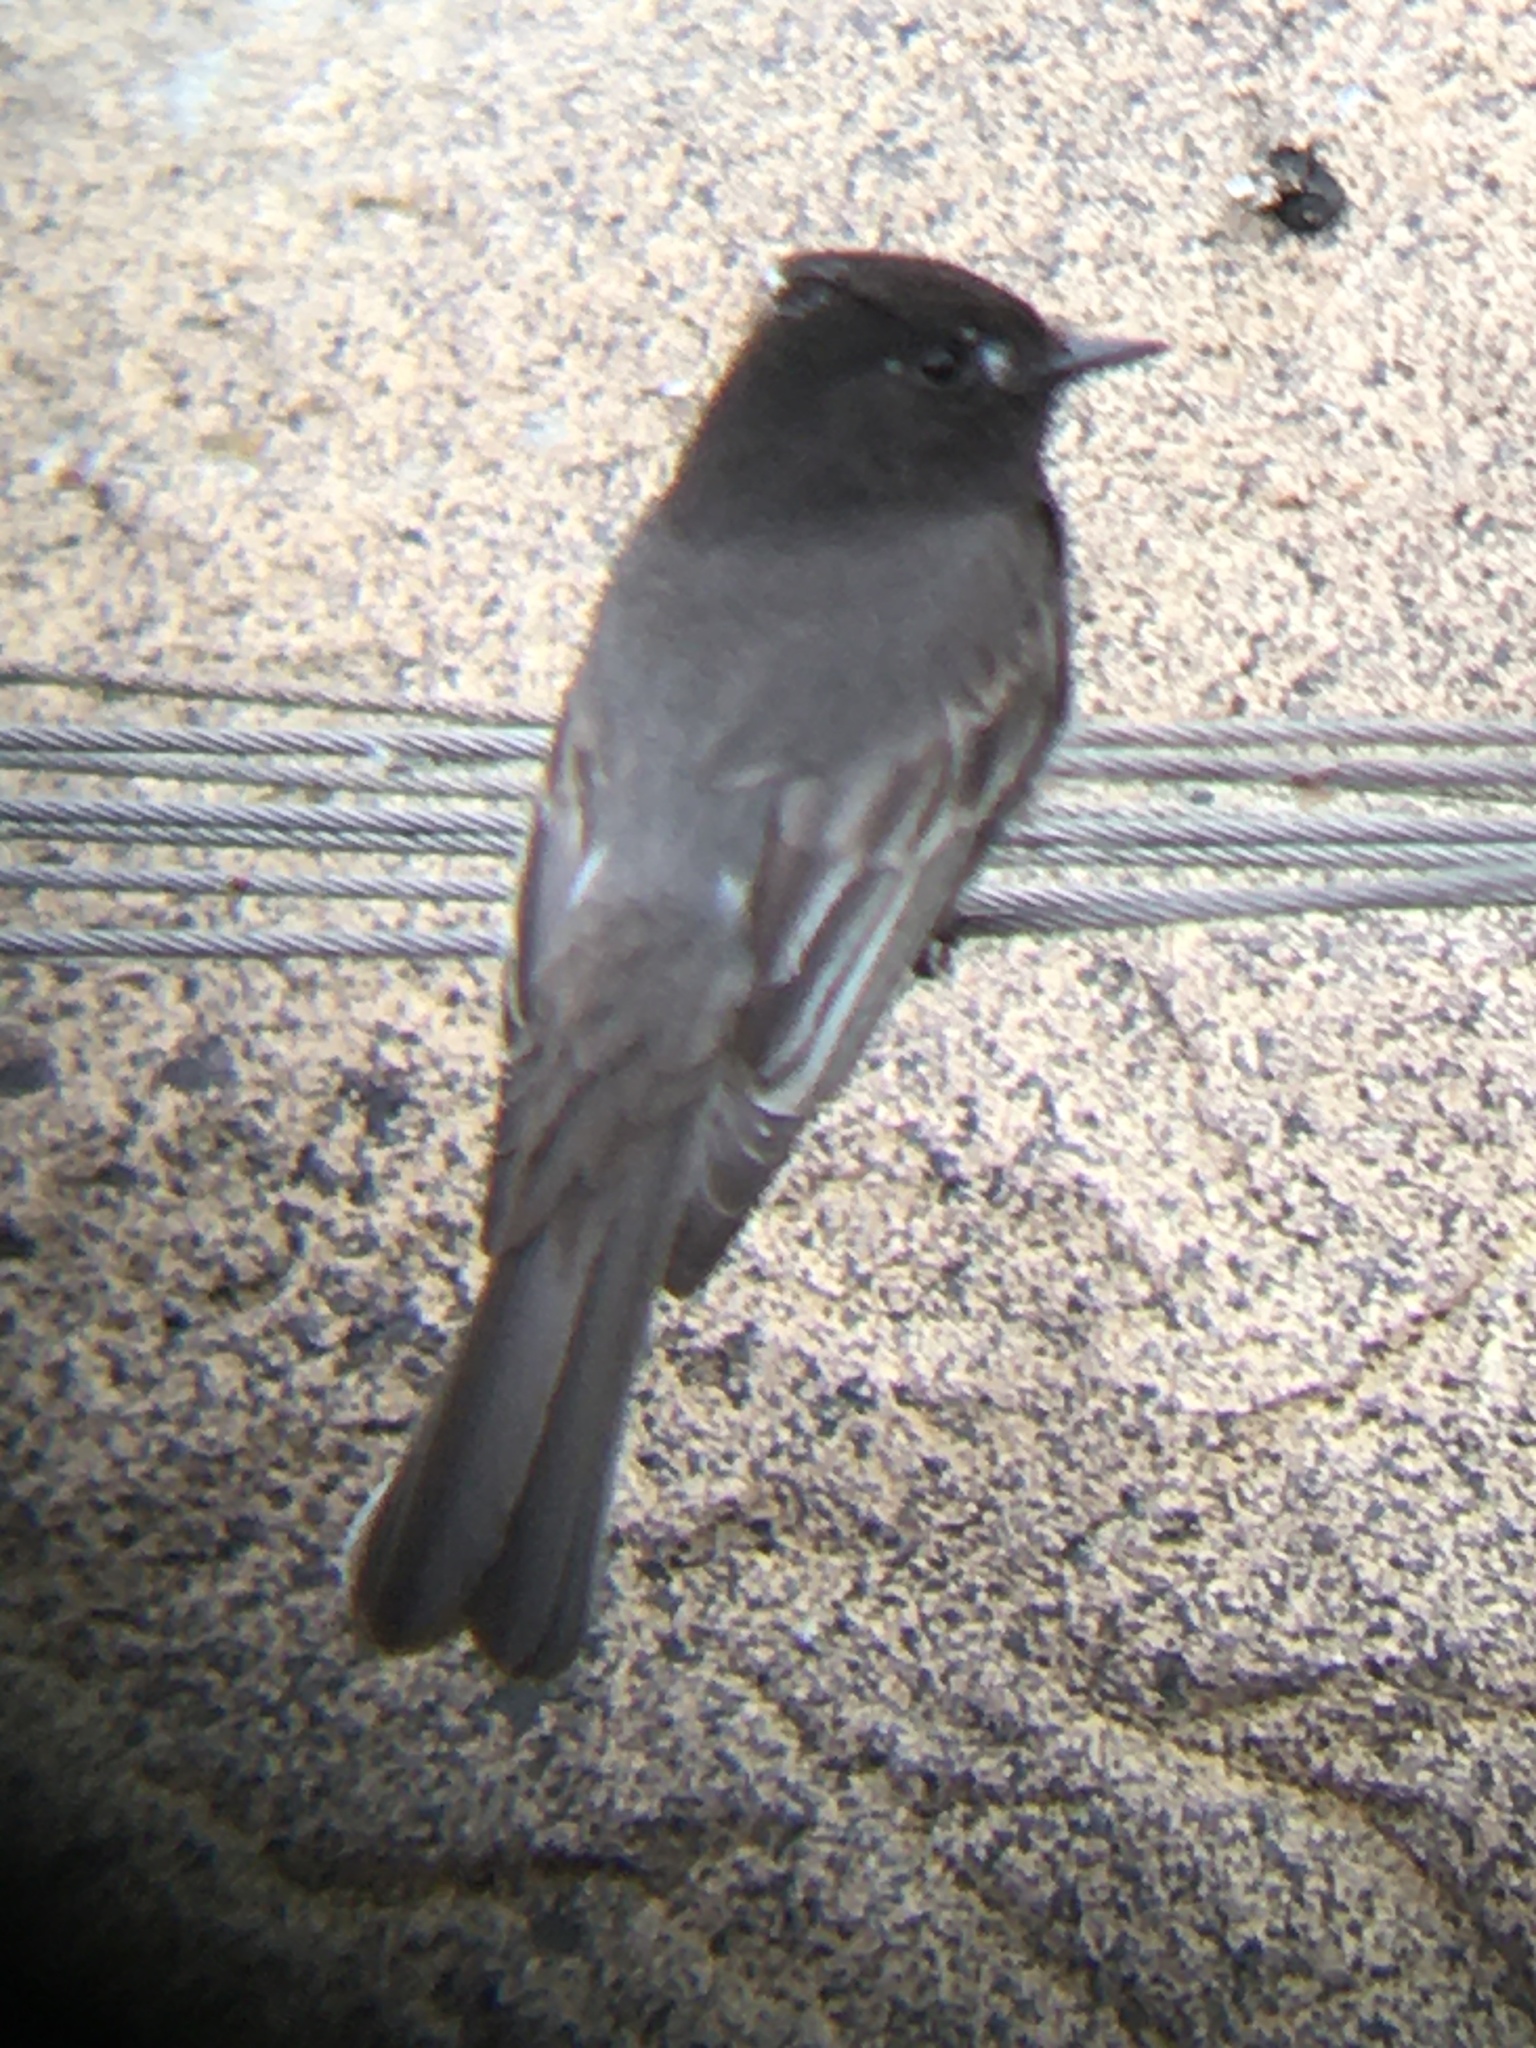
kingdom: Animalia
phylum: Chordata
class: Aves
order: Passeriformes
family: Tyrannidae
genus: Sayornis
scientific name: Sayornis nigricans
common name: Black phoebe
